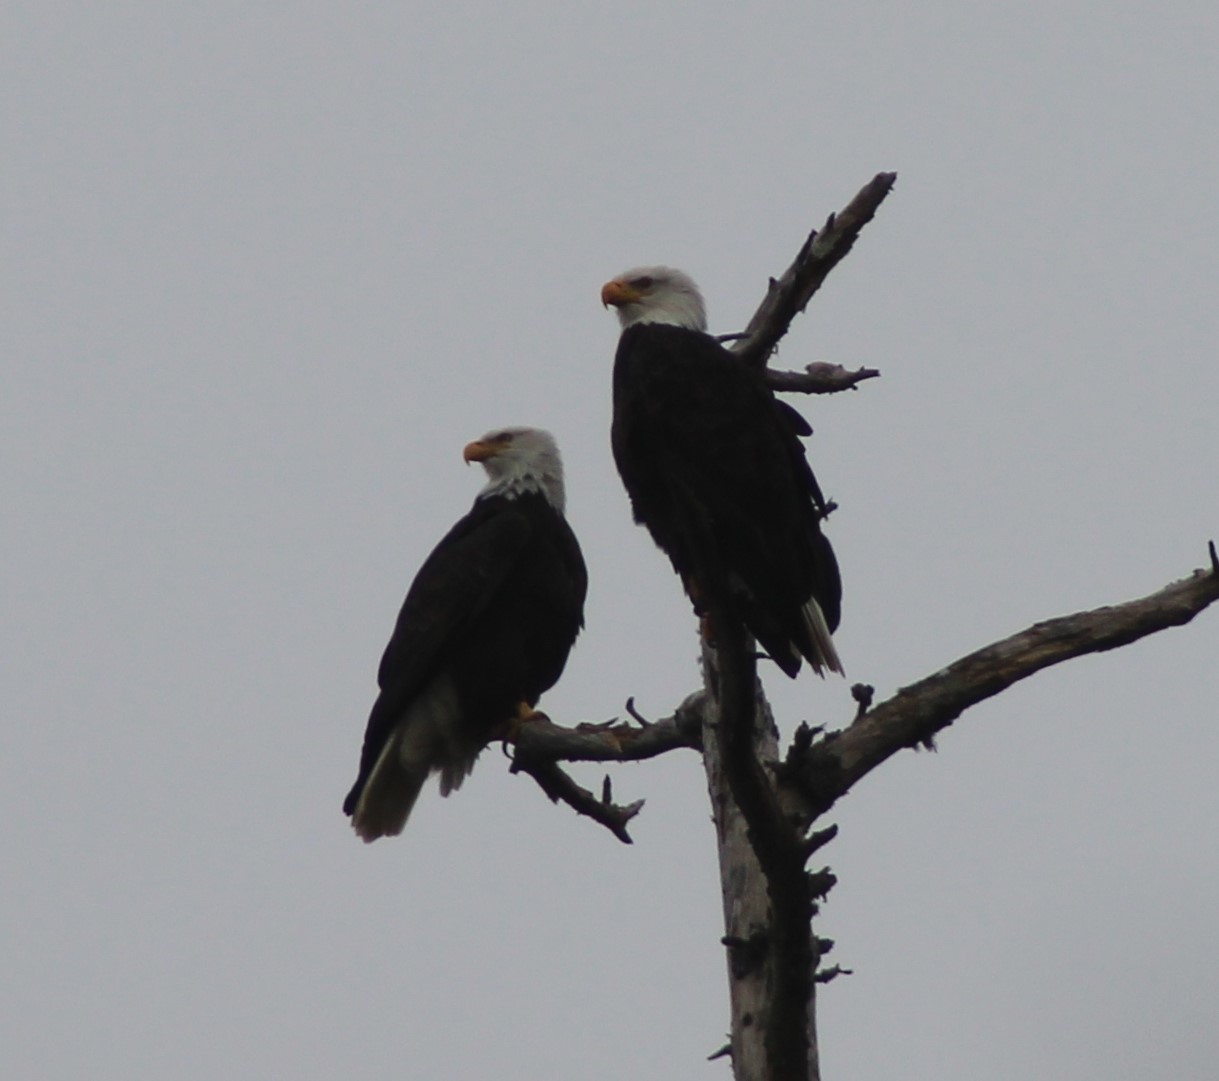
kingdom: Animalia
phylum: Chordata
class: Aves
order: Accipitriformes
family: Accipitridae
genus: Haliaeetus
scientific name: Haliaeetus leucocephalus
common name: Bald eagle
